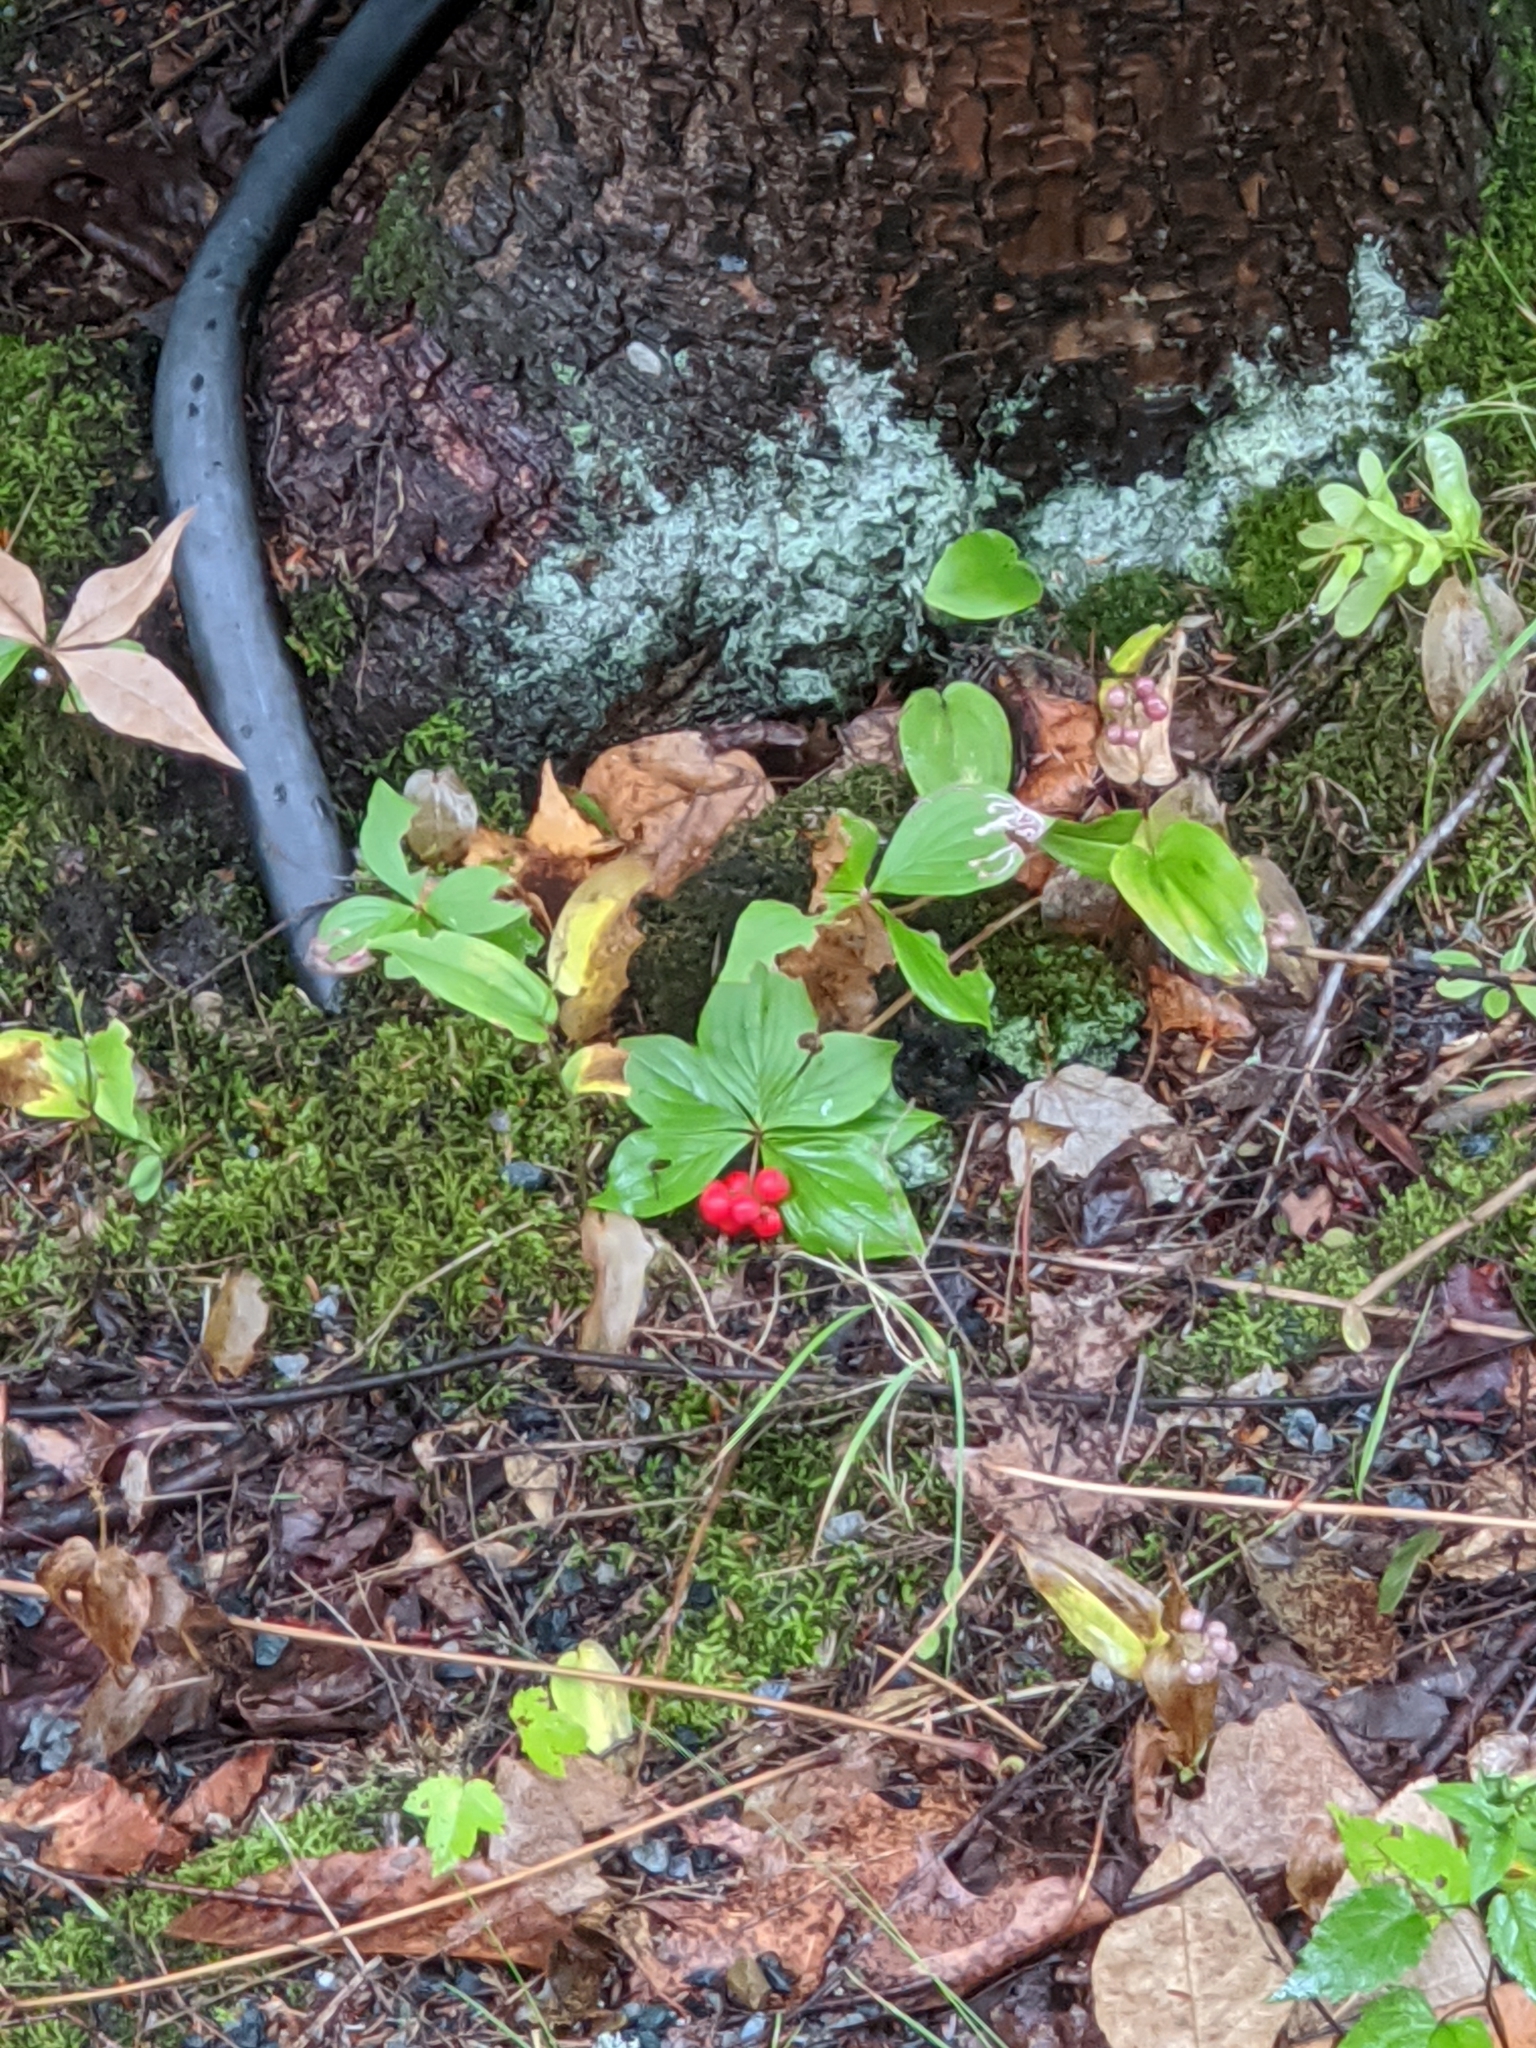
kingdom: Plantae
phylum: Tracheophyta
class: Magnoliopsida
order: Cornales
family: Cornaceae
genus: Cornus
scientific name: Cornus canadensis
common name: Creeping dogwood
